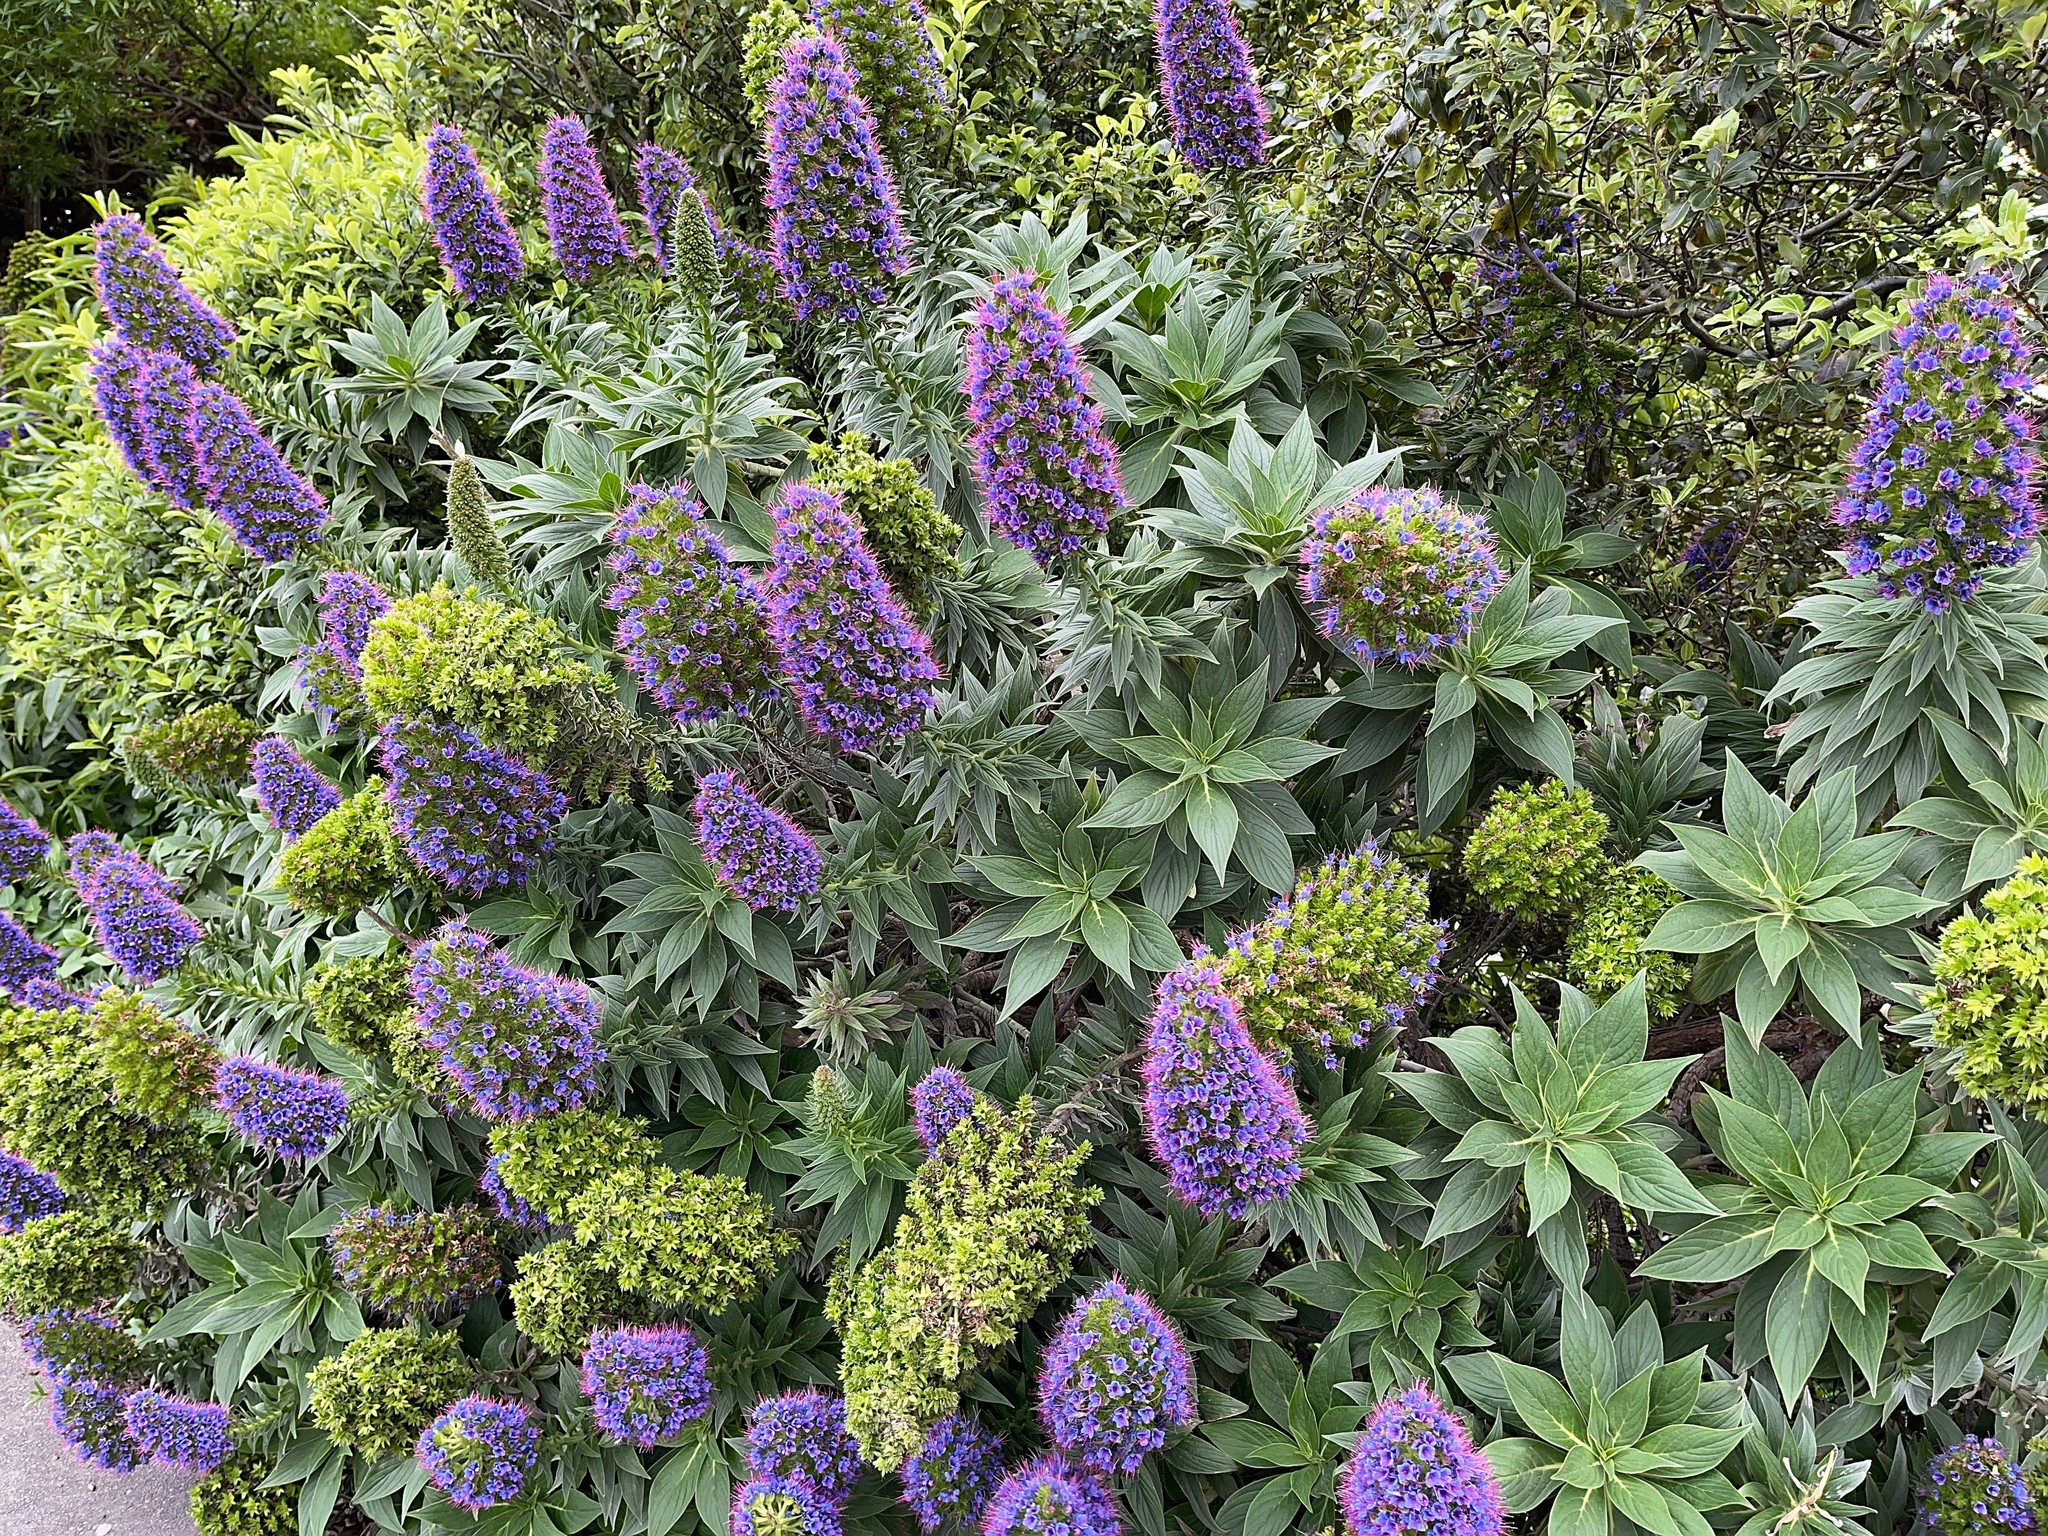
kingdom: Plantae
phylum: Tracheophyta
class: Magnoliopsida
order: Boraginales
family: Boraginaceae
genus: Echium
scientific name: Echium candicans
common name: Pride of madeira
